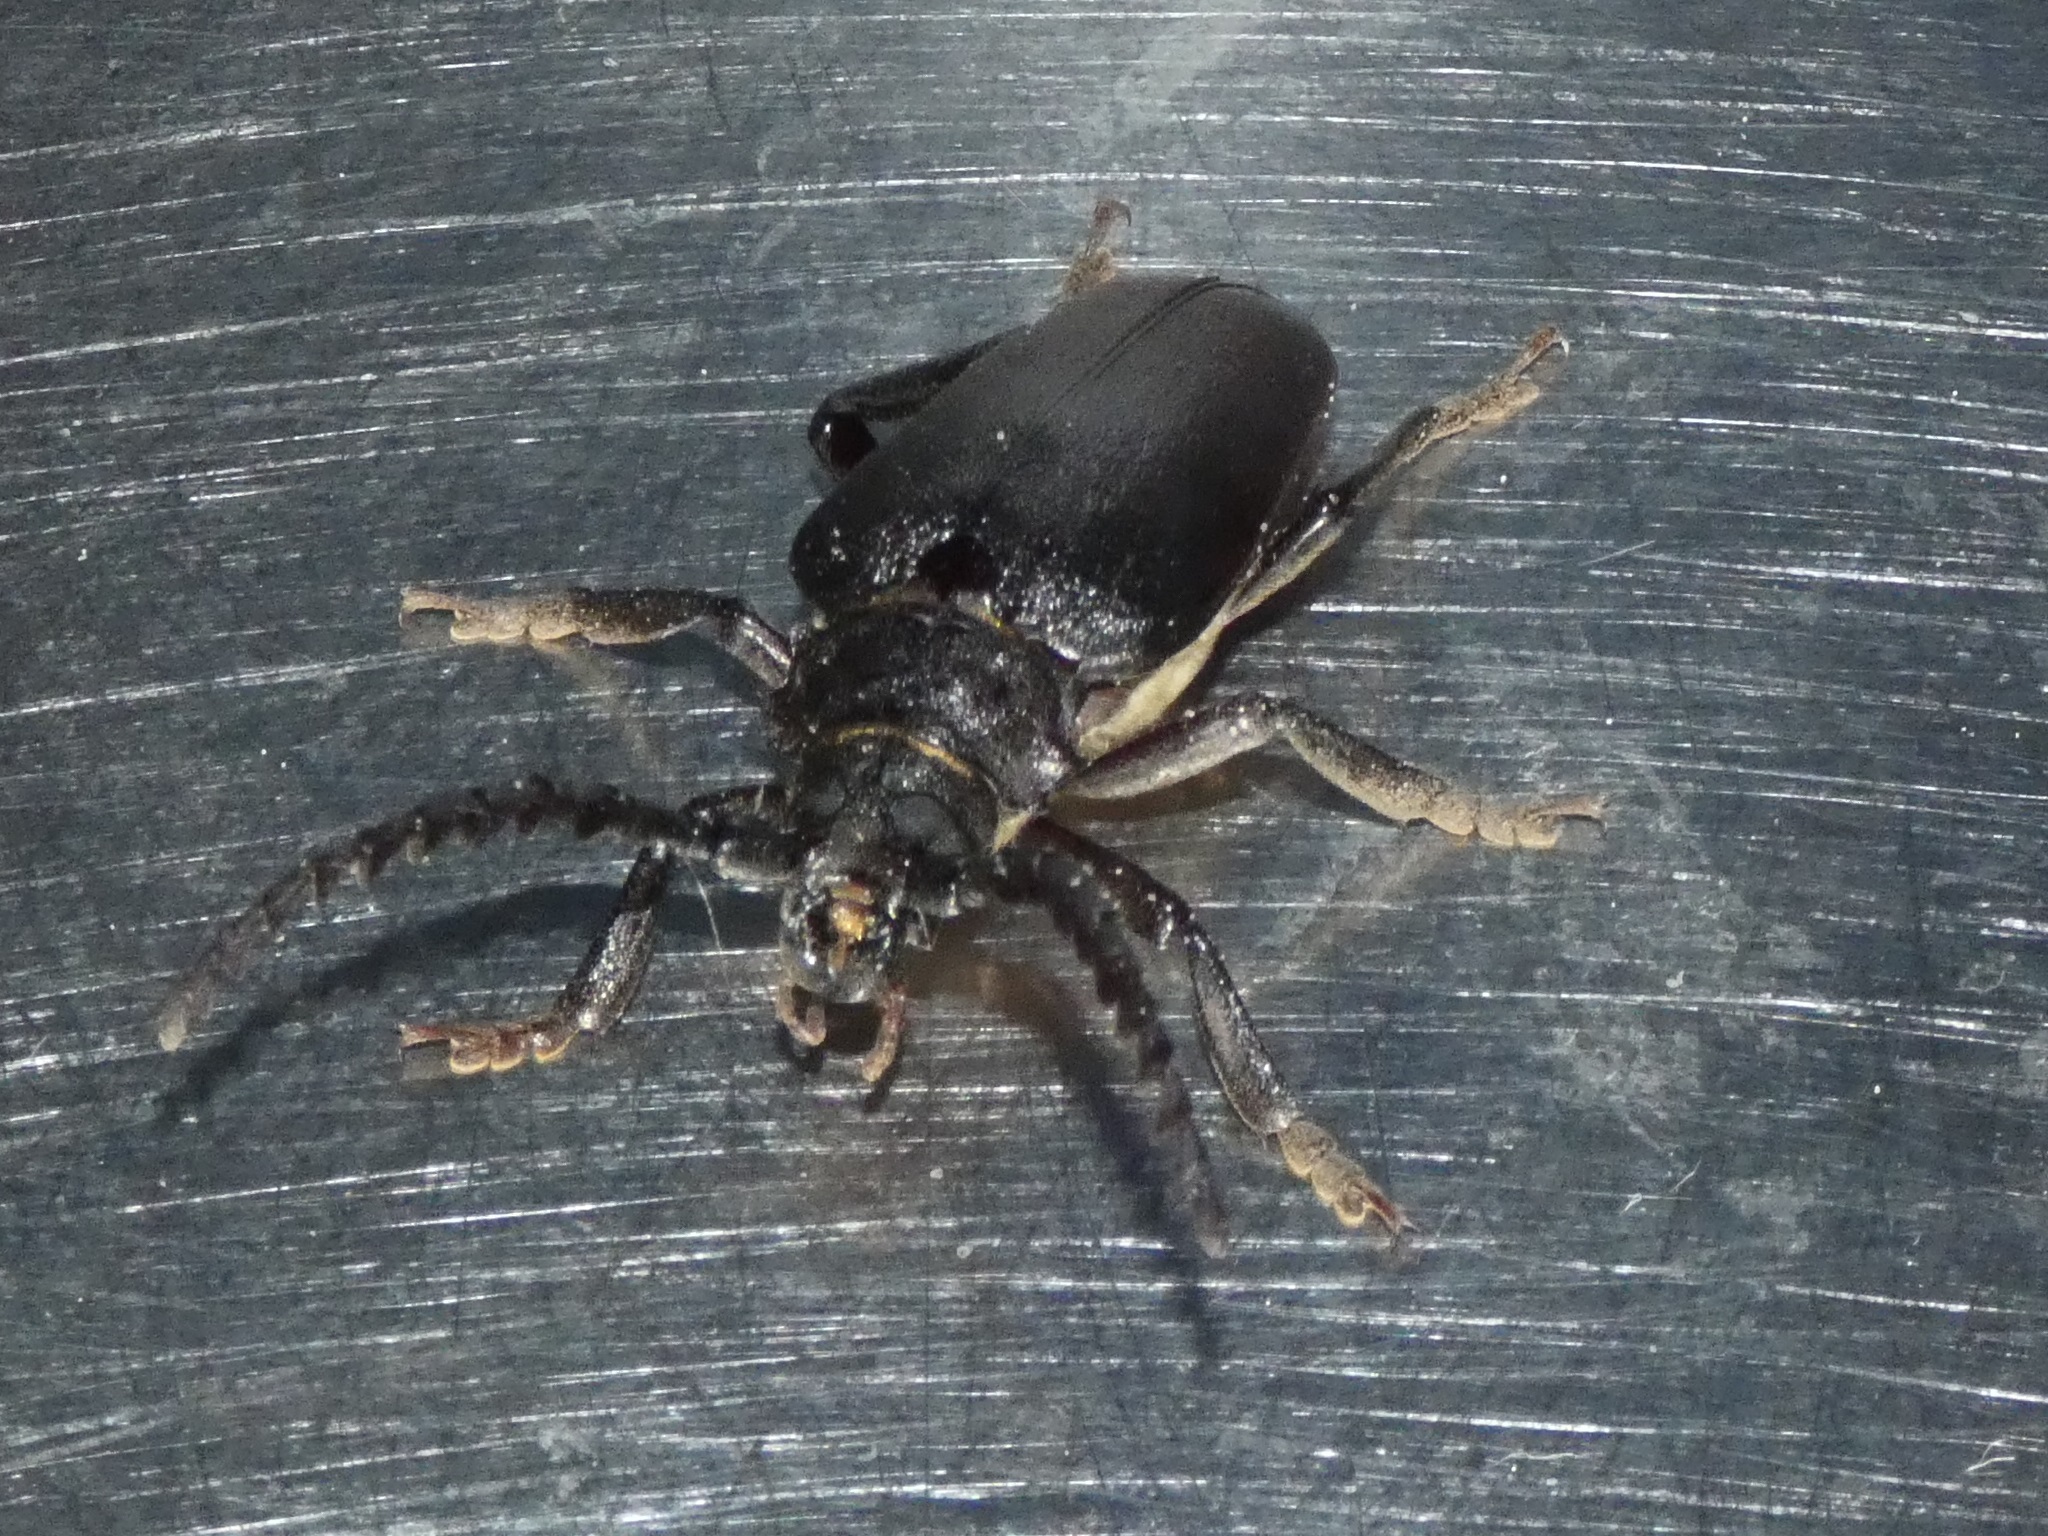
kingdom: Animalia
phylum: Arthropoda
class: Insecta
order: Coleoptera
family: Cerambycidae
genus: Prionus
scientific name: Prionus coriarius
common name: Tanner beetle
